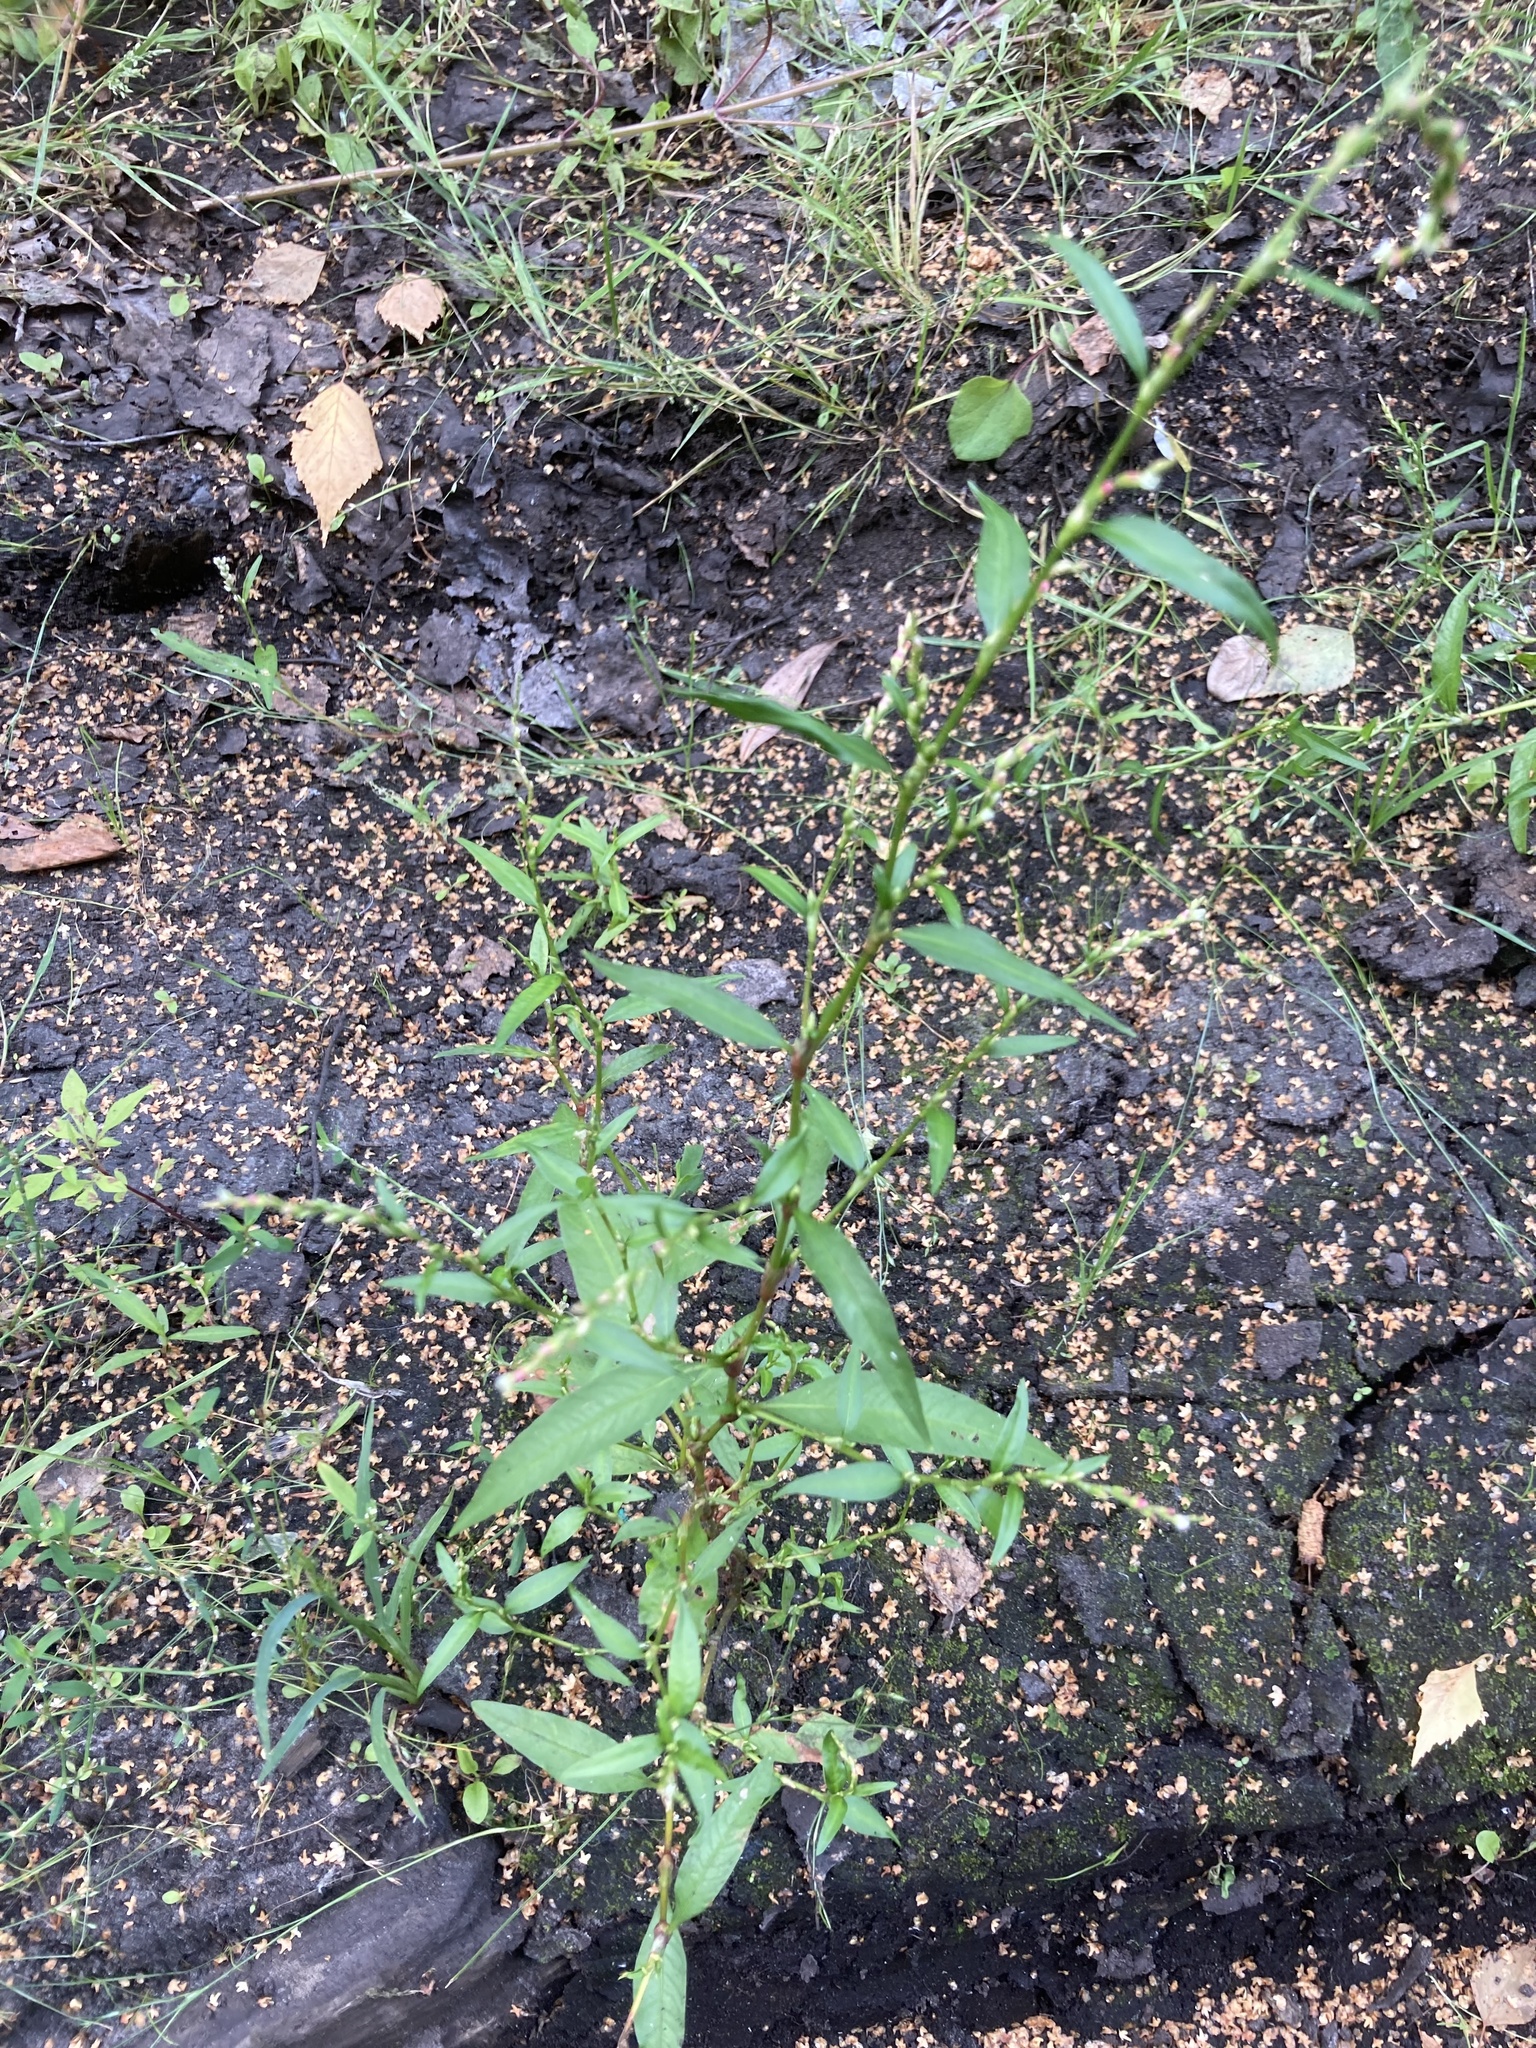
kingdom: Plantae
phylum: Tracheophyta
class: Magnoliopsida
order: Caryophyllales
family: Polygonaceae
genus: Persicaria
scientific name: Persicaria hydropiper
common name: Water-pepper
